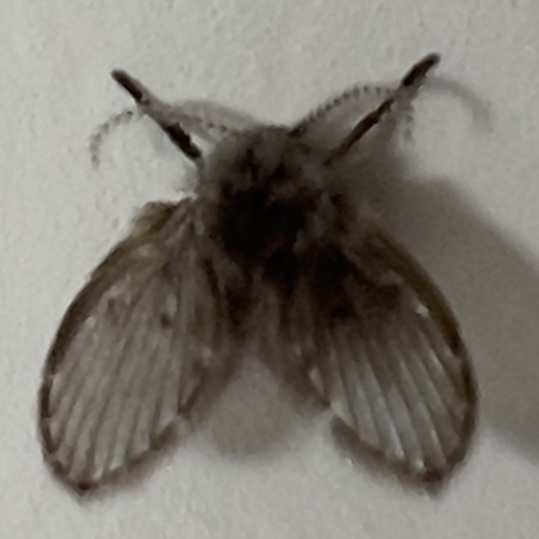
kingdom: Animalia
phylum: Arthropoda
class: Insecta
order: Diptera
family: Psychodidae
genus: Clogmia
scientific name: Clogmia albipunctatus
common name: White-spotted moth fly
